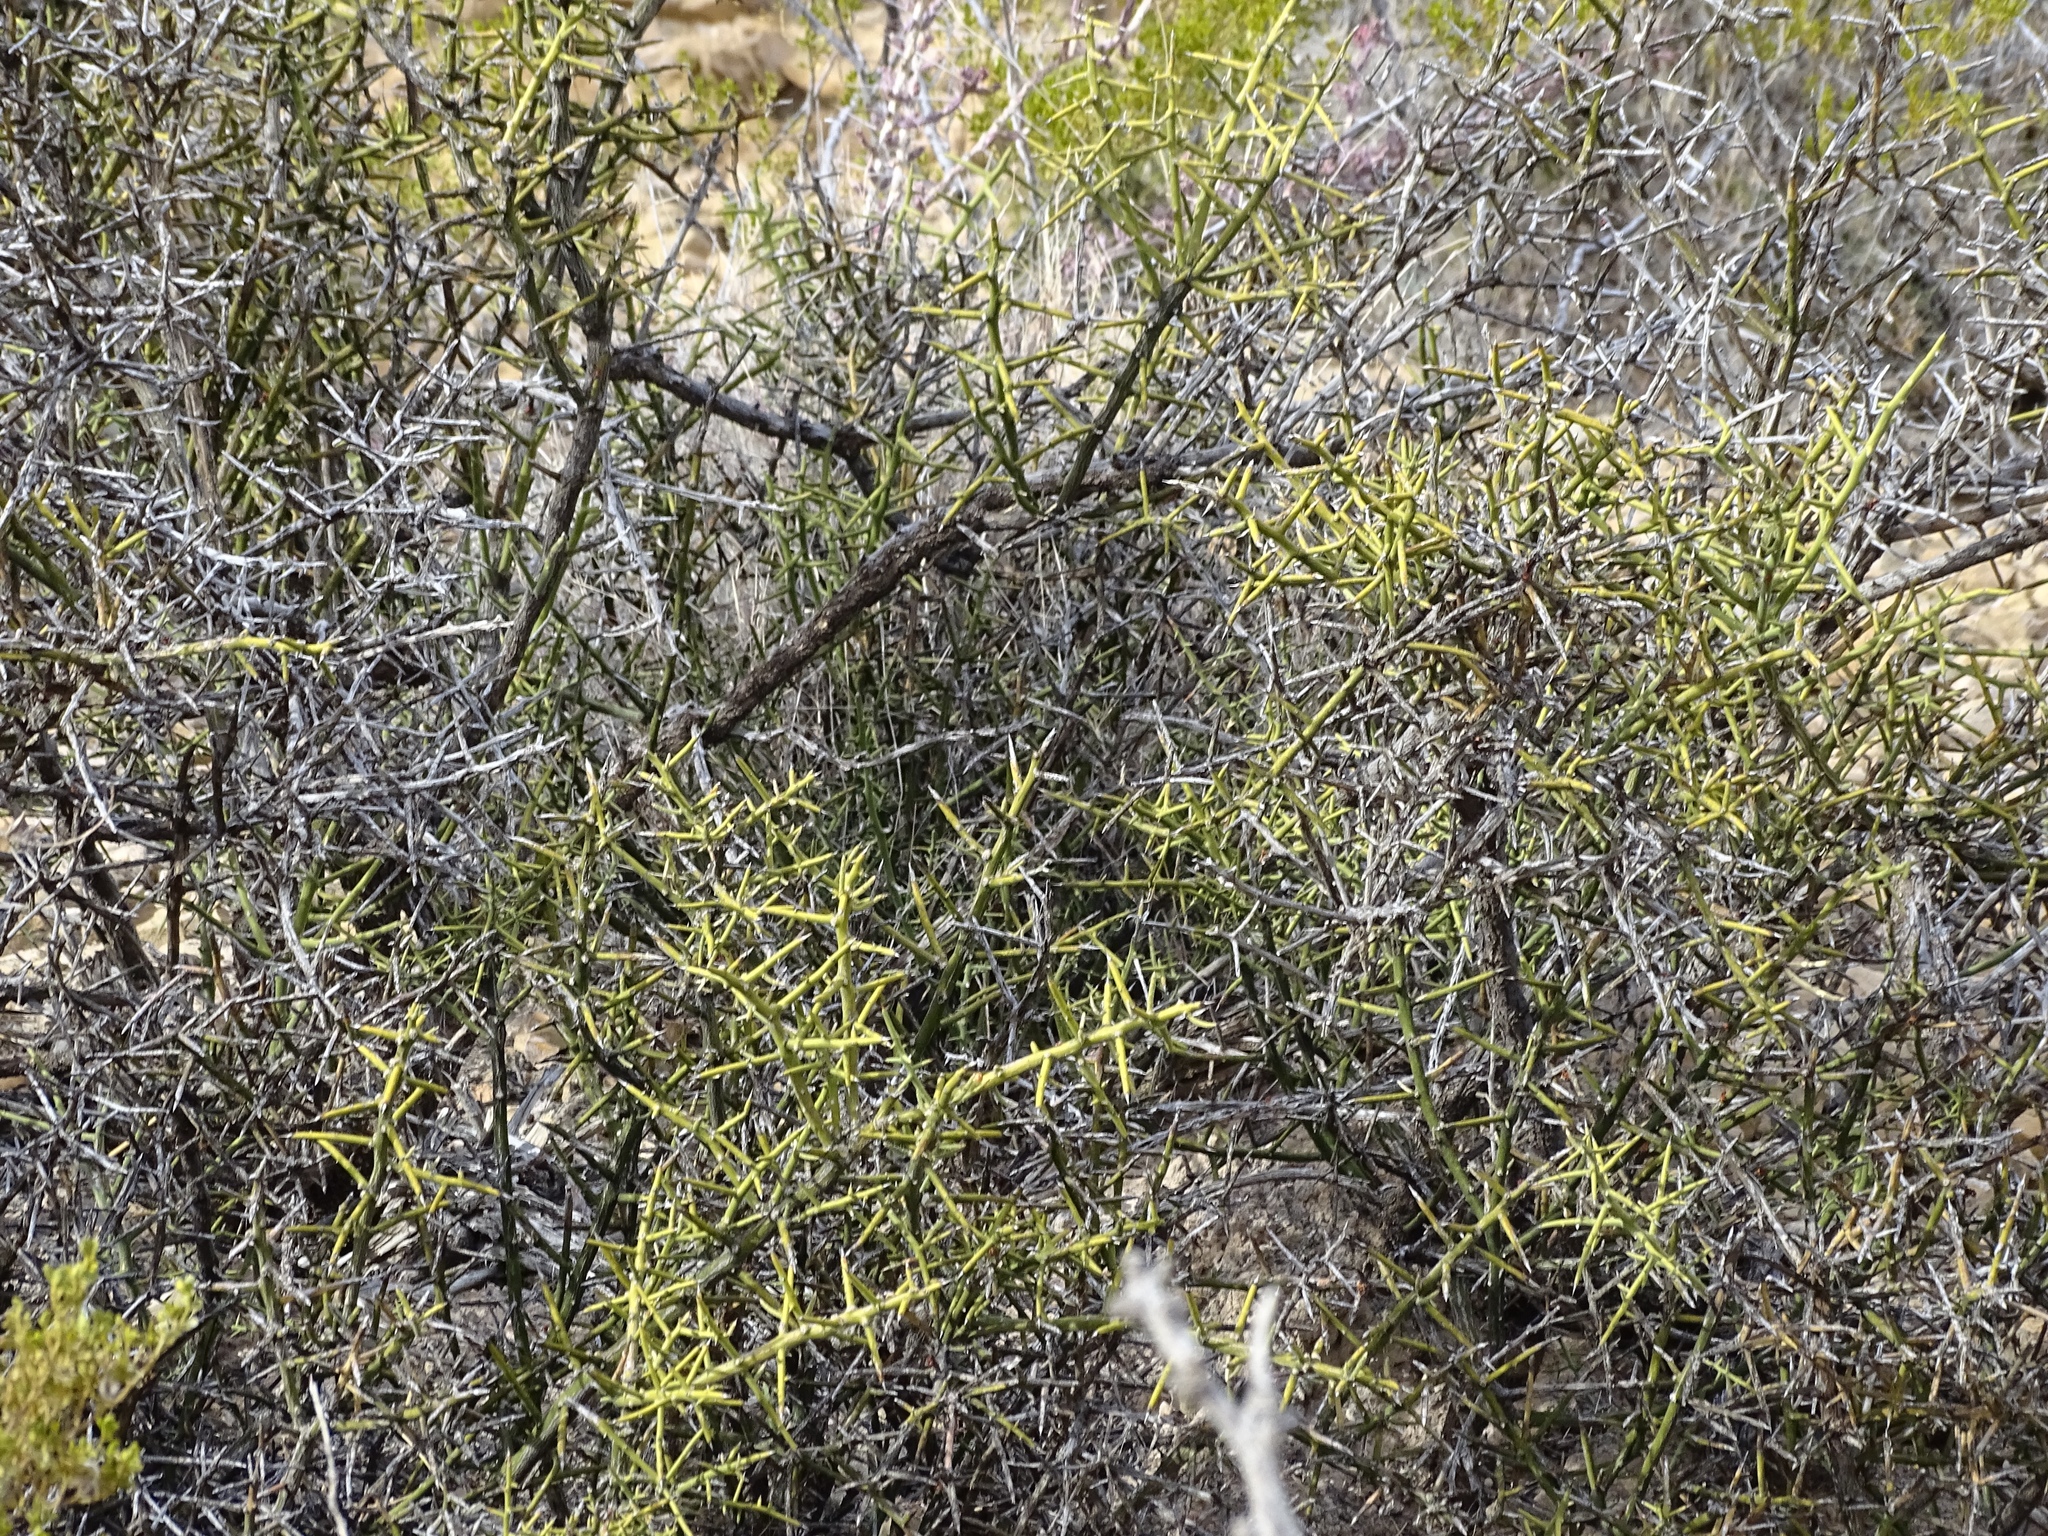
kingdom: Plantae
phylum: Tracheophyta
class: Magnoliopsida
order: Brassicales
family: Koeberliniaceae
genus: Koeberlinia
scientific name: Koeberlinia spinosa
